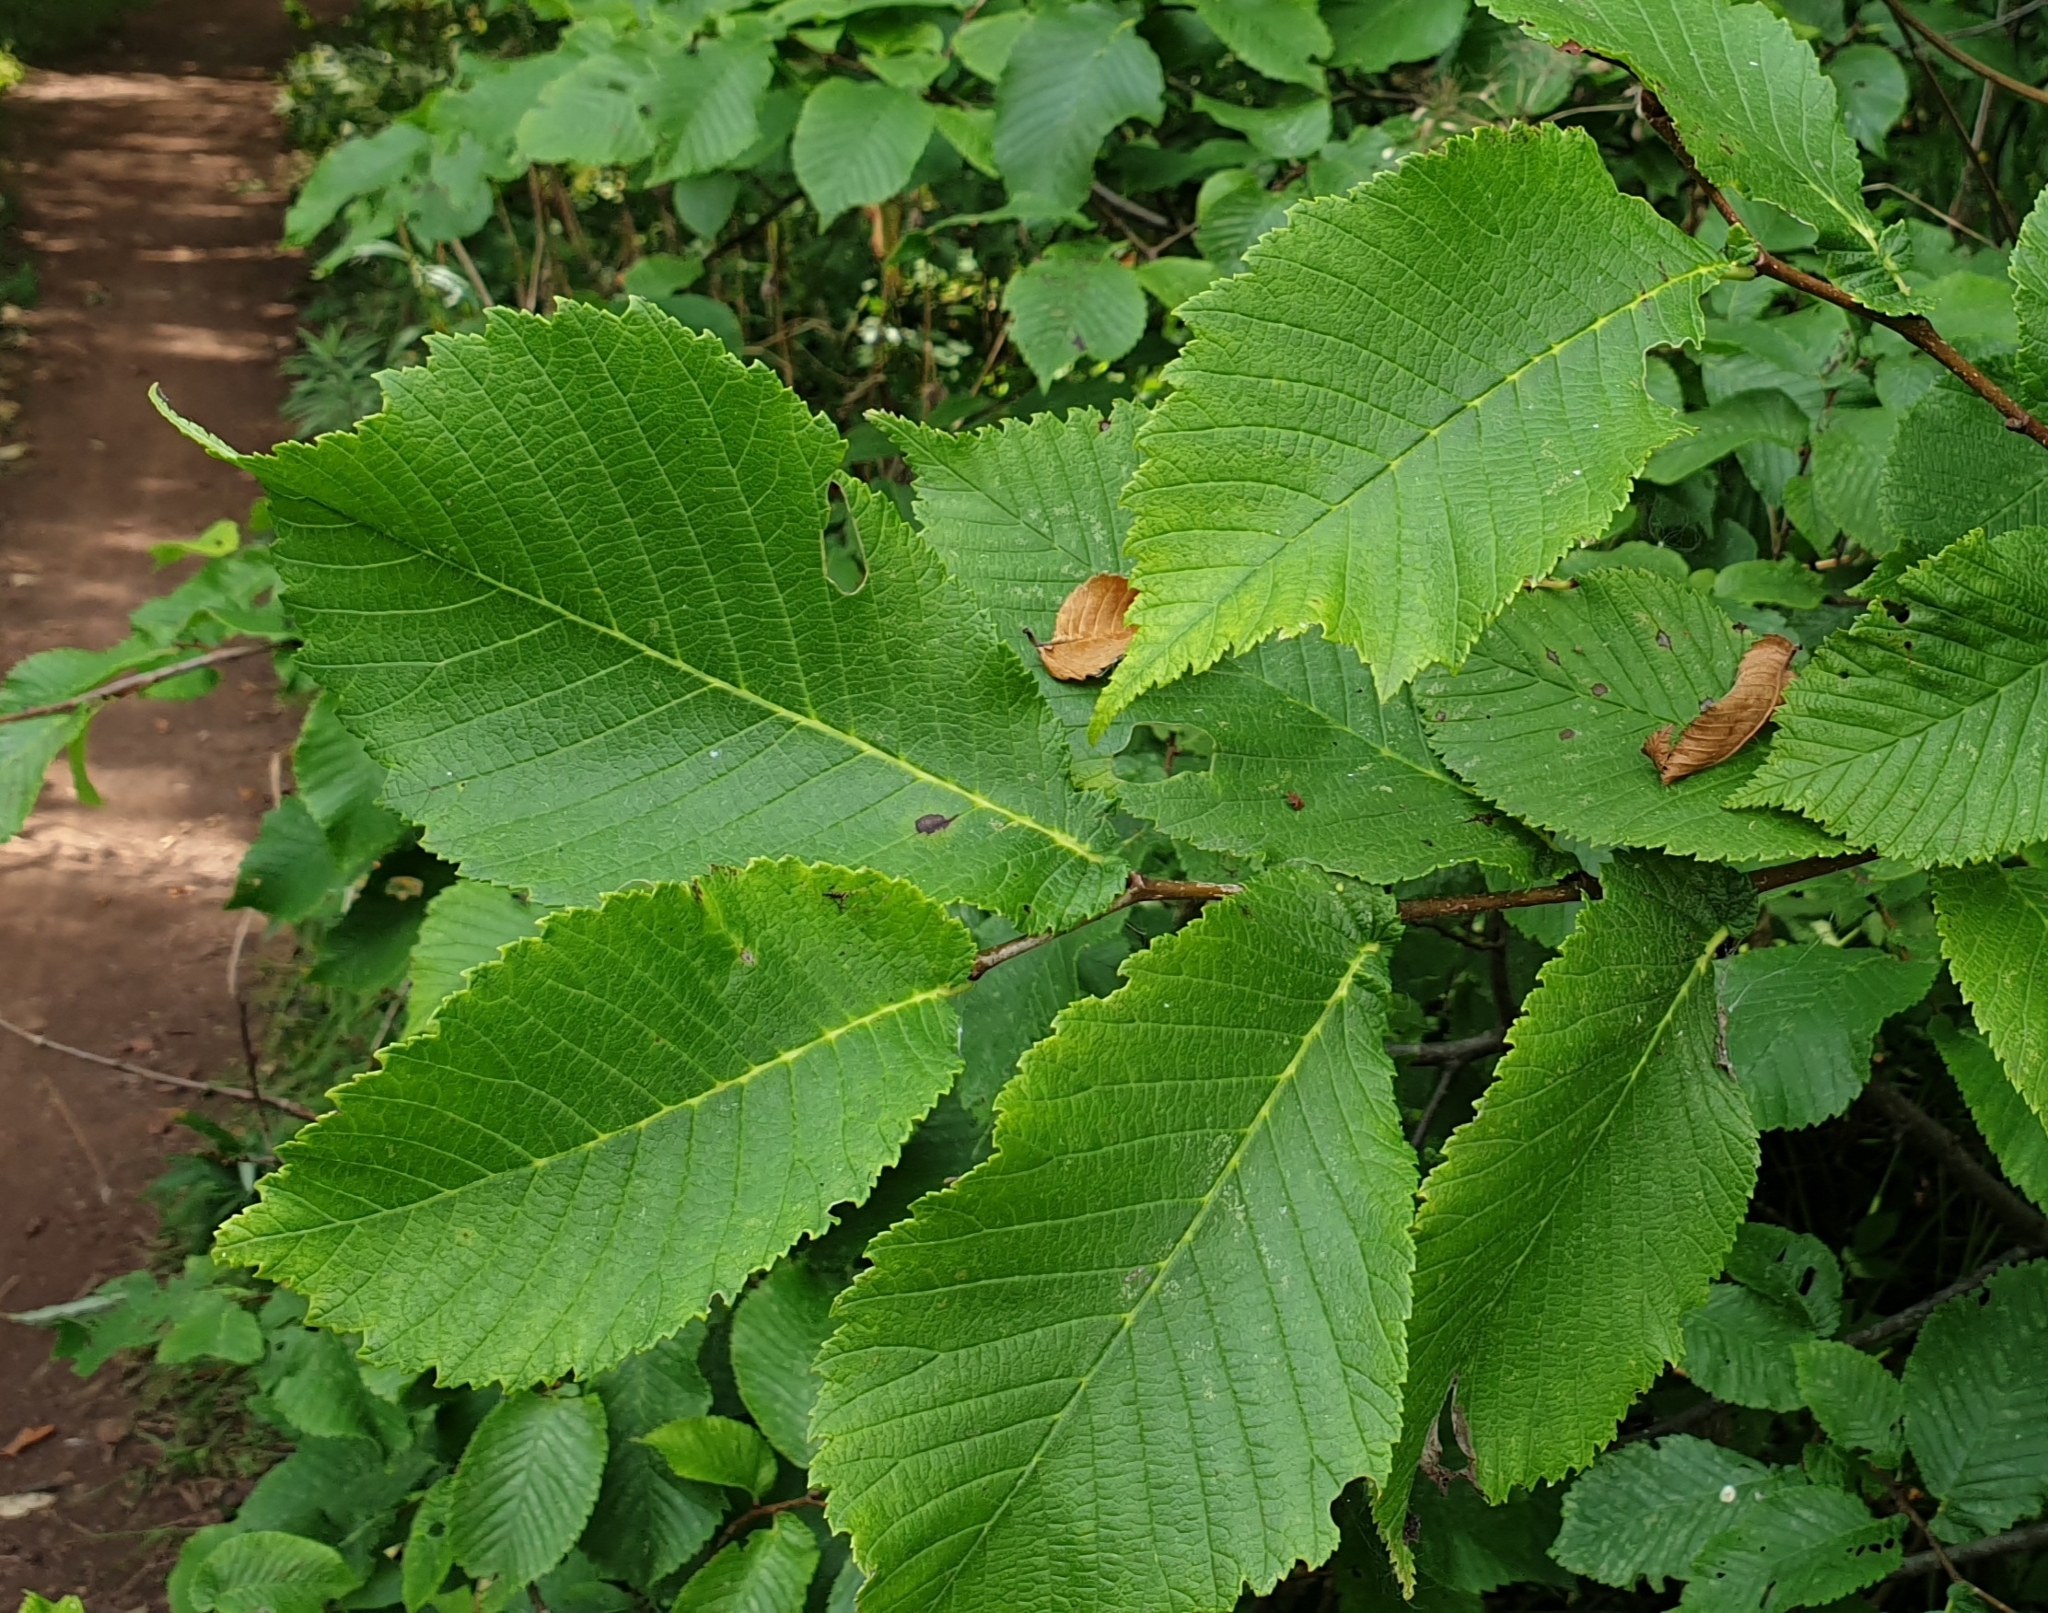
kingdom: Plantae
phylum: Tracheophyta
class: Magnoliopsida
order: Rosales
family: Ulmaceae
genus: Ulmus
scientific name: Ulmus glabra
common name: Wych elm
